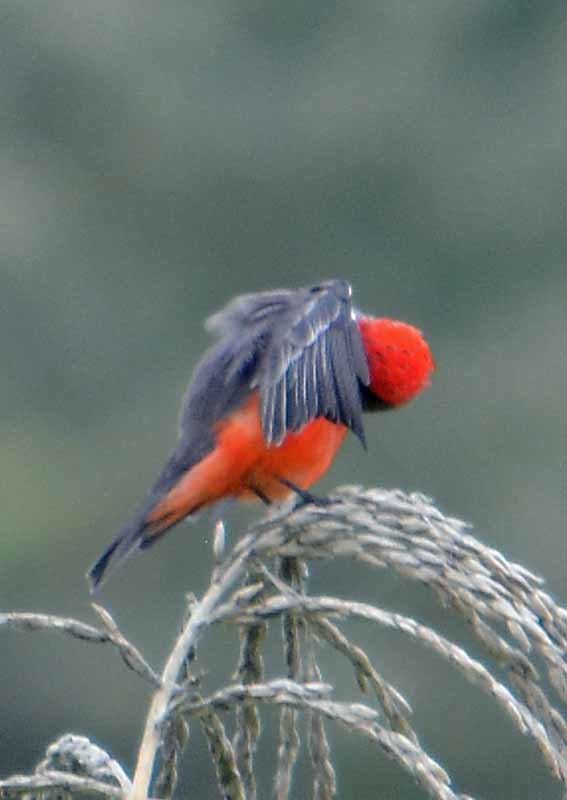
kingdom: Animalia
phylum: Chordata
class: Aves
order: Passeriformes
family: Tyrannidae
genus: Pyrocephalus
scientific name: Pyrocephalus rubinus
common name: Vermilion flycatcher
